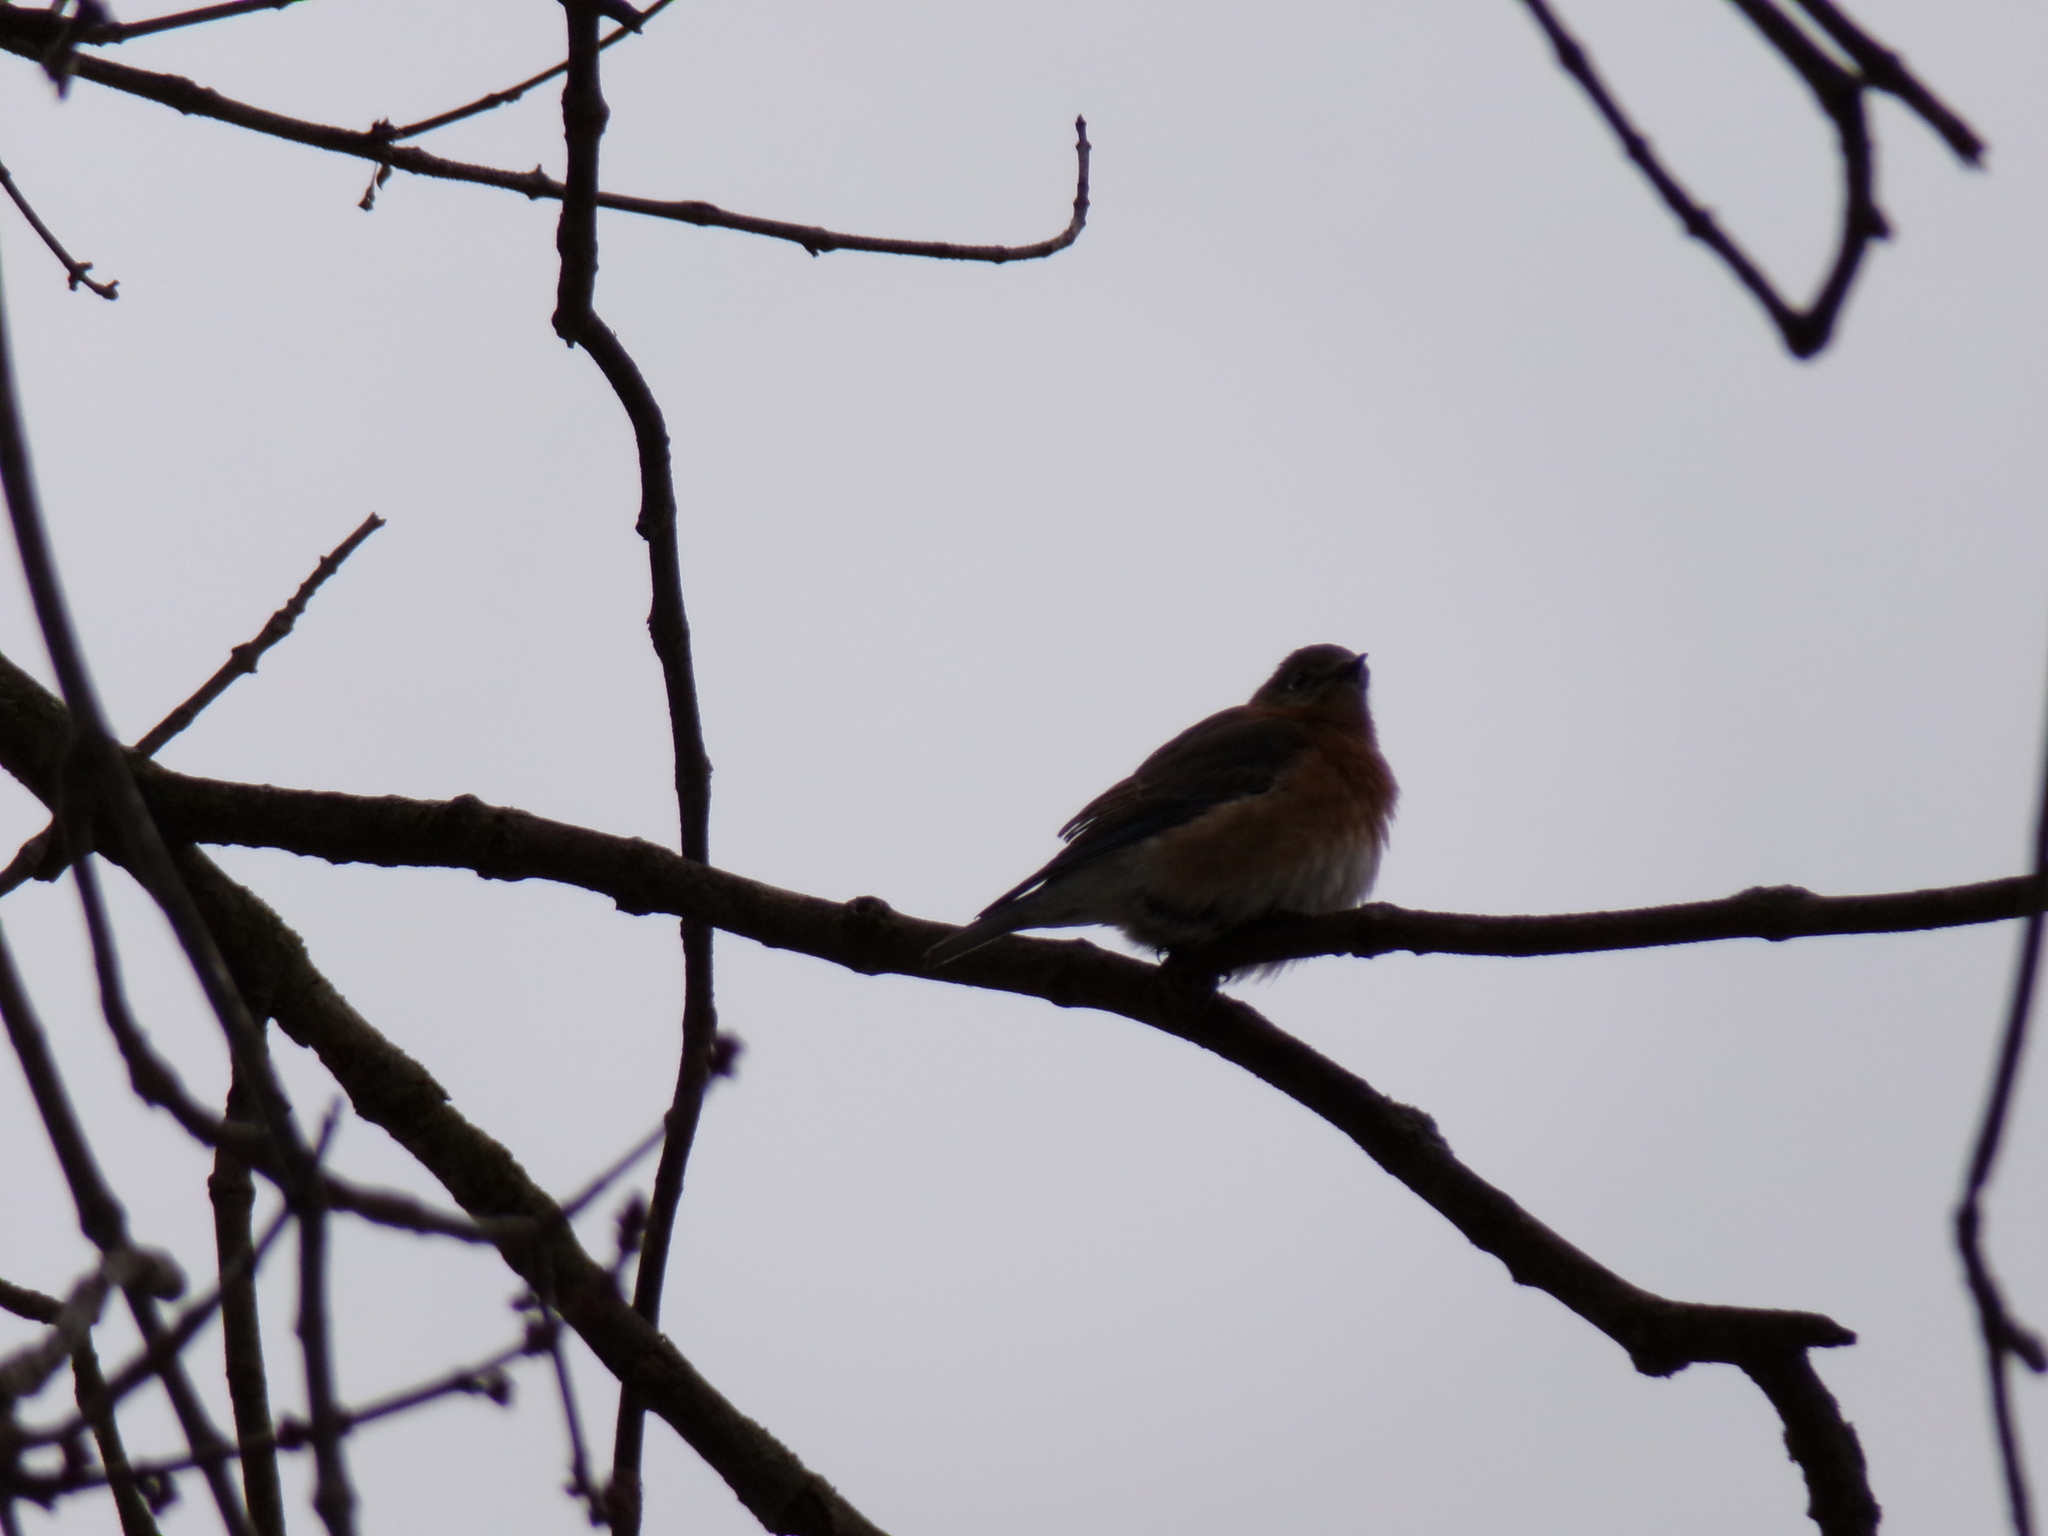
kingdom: Animalia
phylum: Chordata
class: Aves
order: Passeriformes
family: Turdidae
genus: Sialia
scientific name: Sialia sialis
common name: Eastern bluebird
